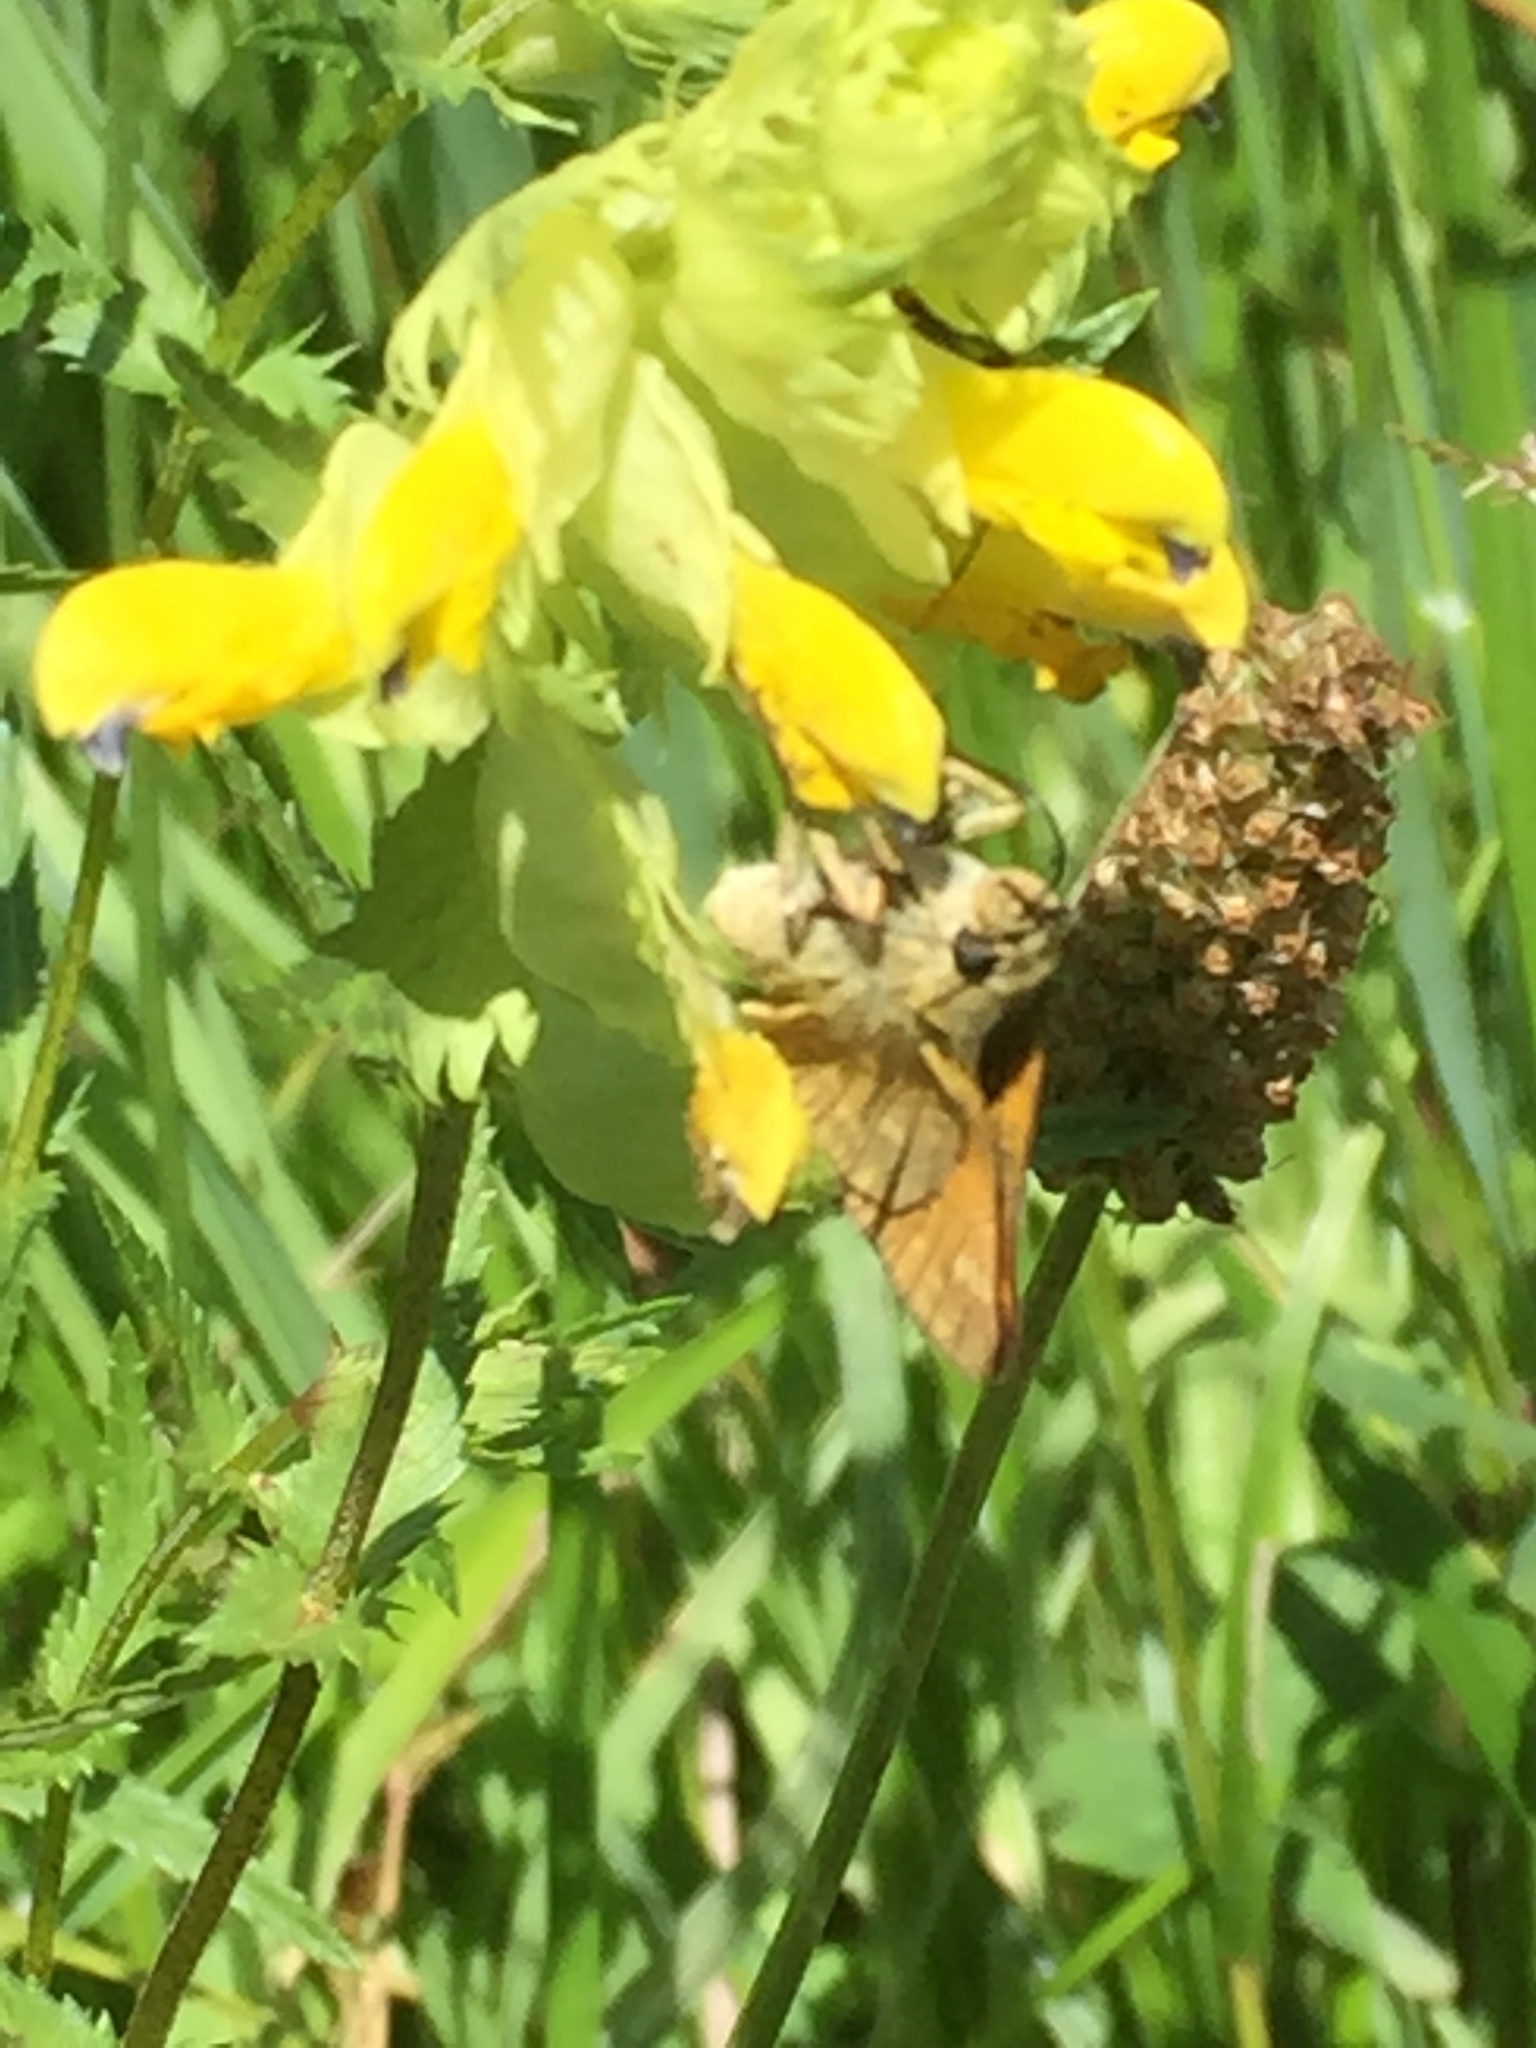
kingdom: Animalia
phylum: Arthropoda
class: Insecta
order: Lepidoptera
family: Hesperiidae
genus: Ochlodes
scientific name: Ochlodes venata
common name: Large skipper
